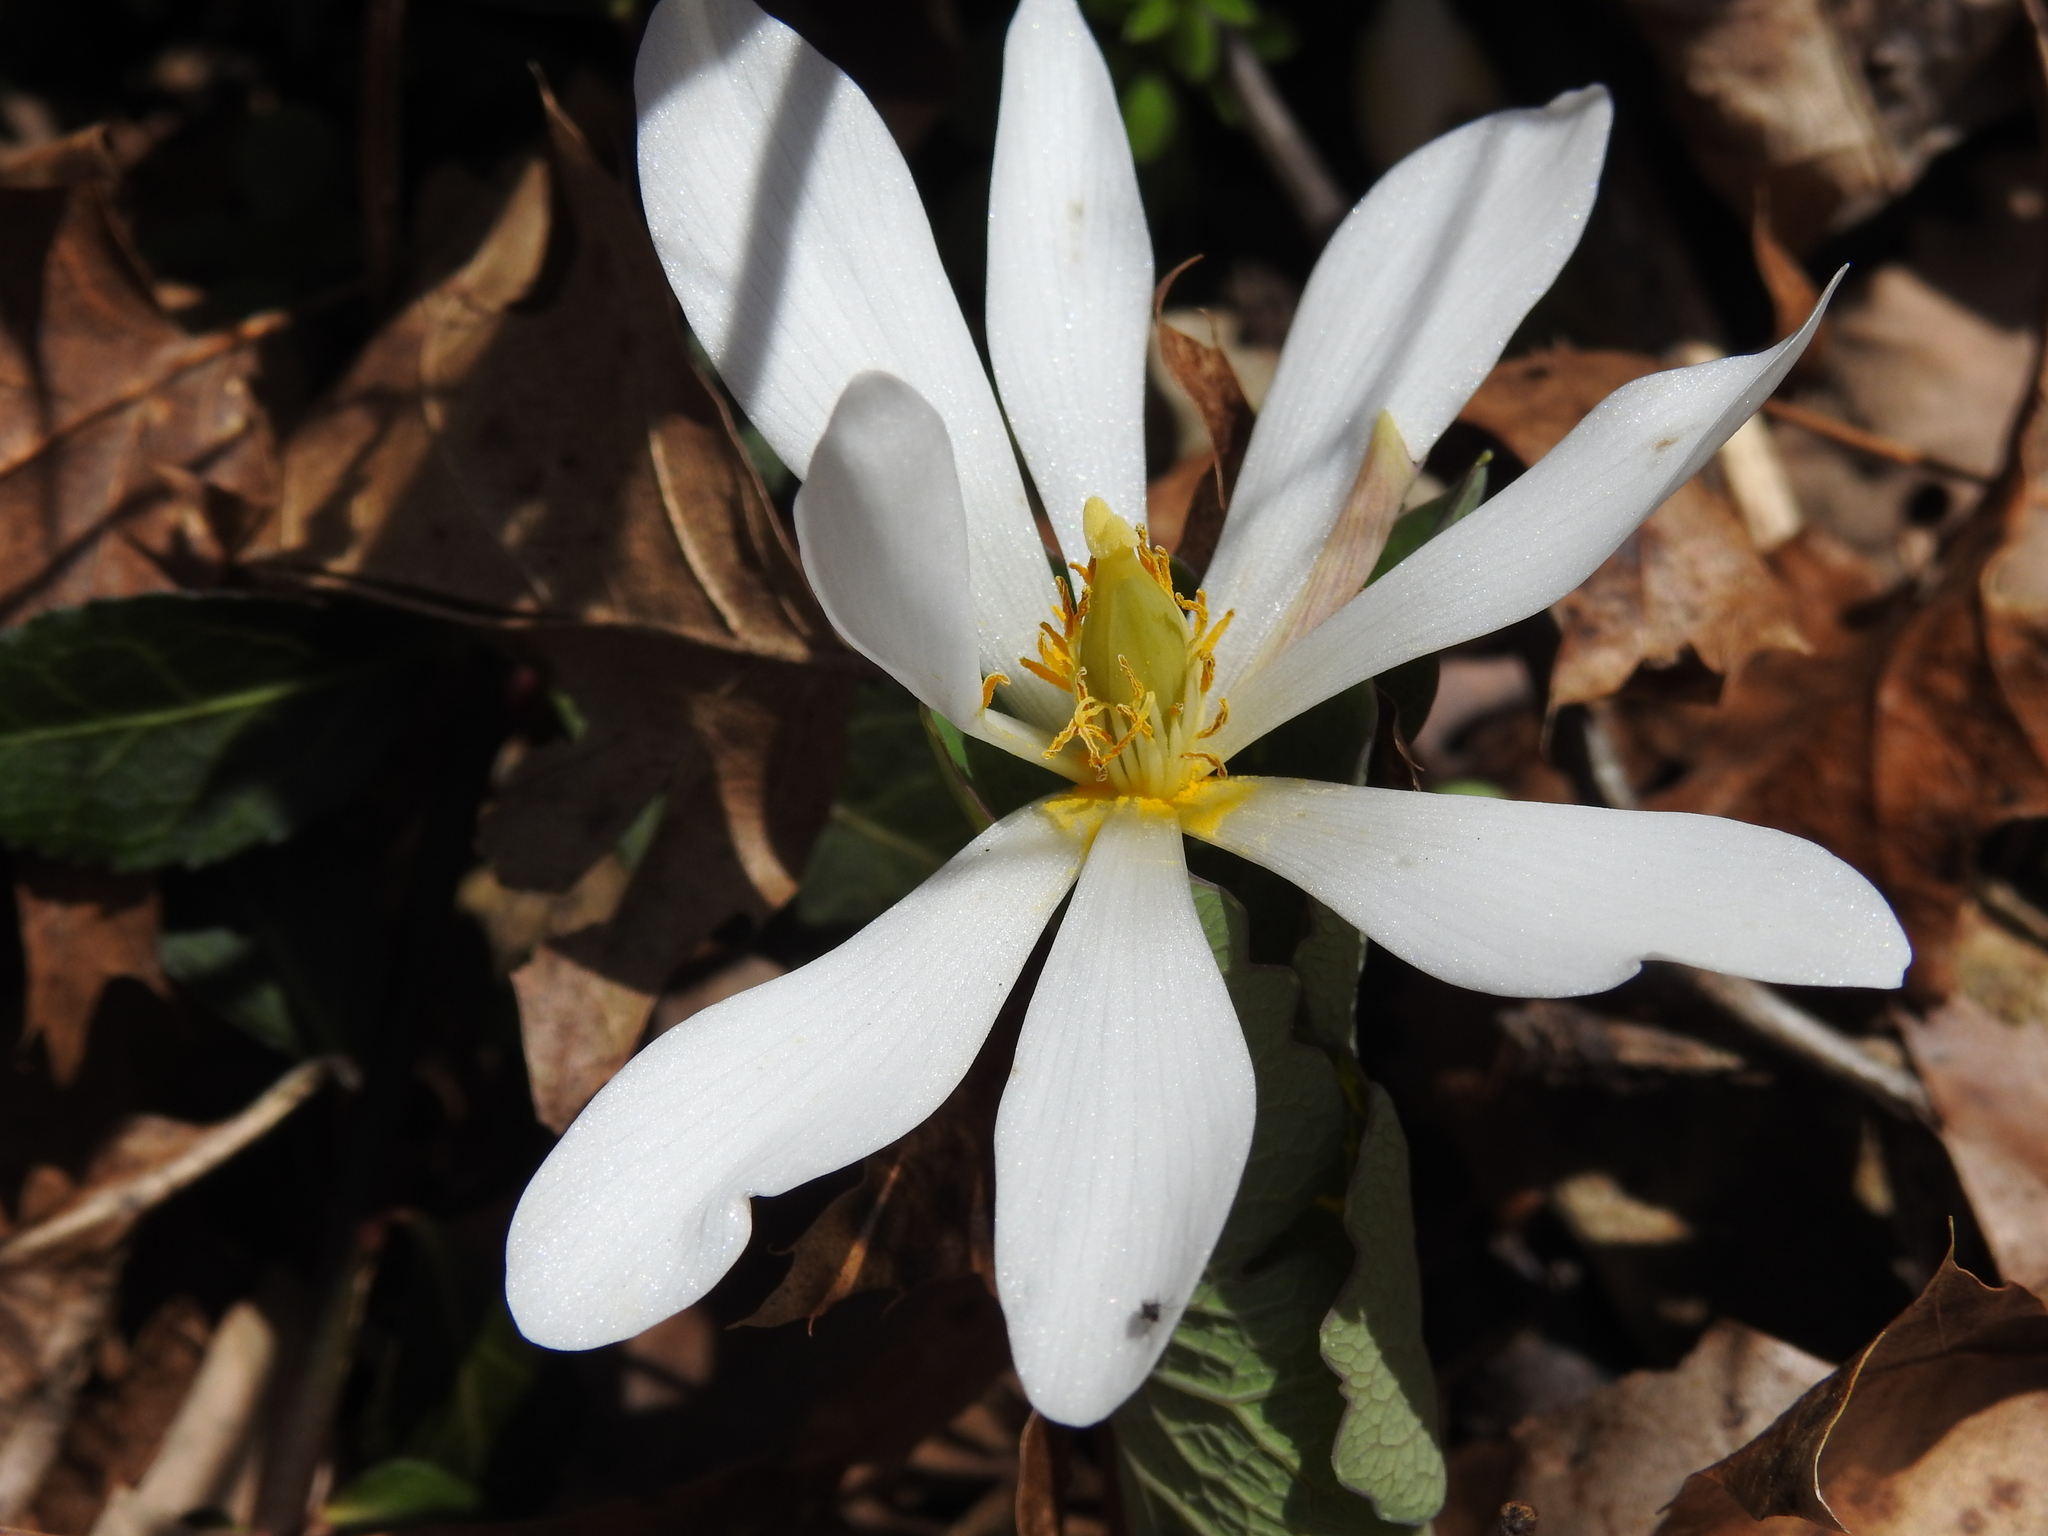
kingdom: Plantae
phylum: Tracheophyta
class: Magnoliopsida
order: Ranunculales
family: Papaveraceae
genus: Sanguinaria
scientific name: Sanguinaria canadensis
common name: Bloodroot
